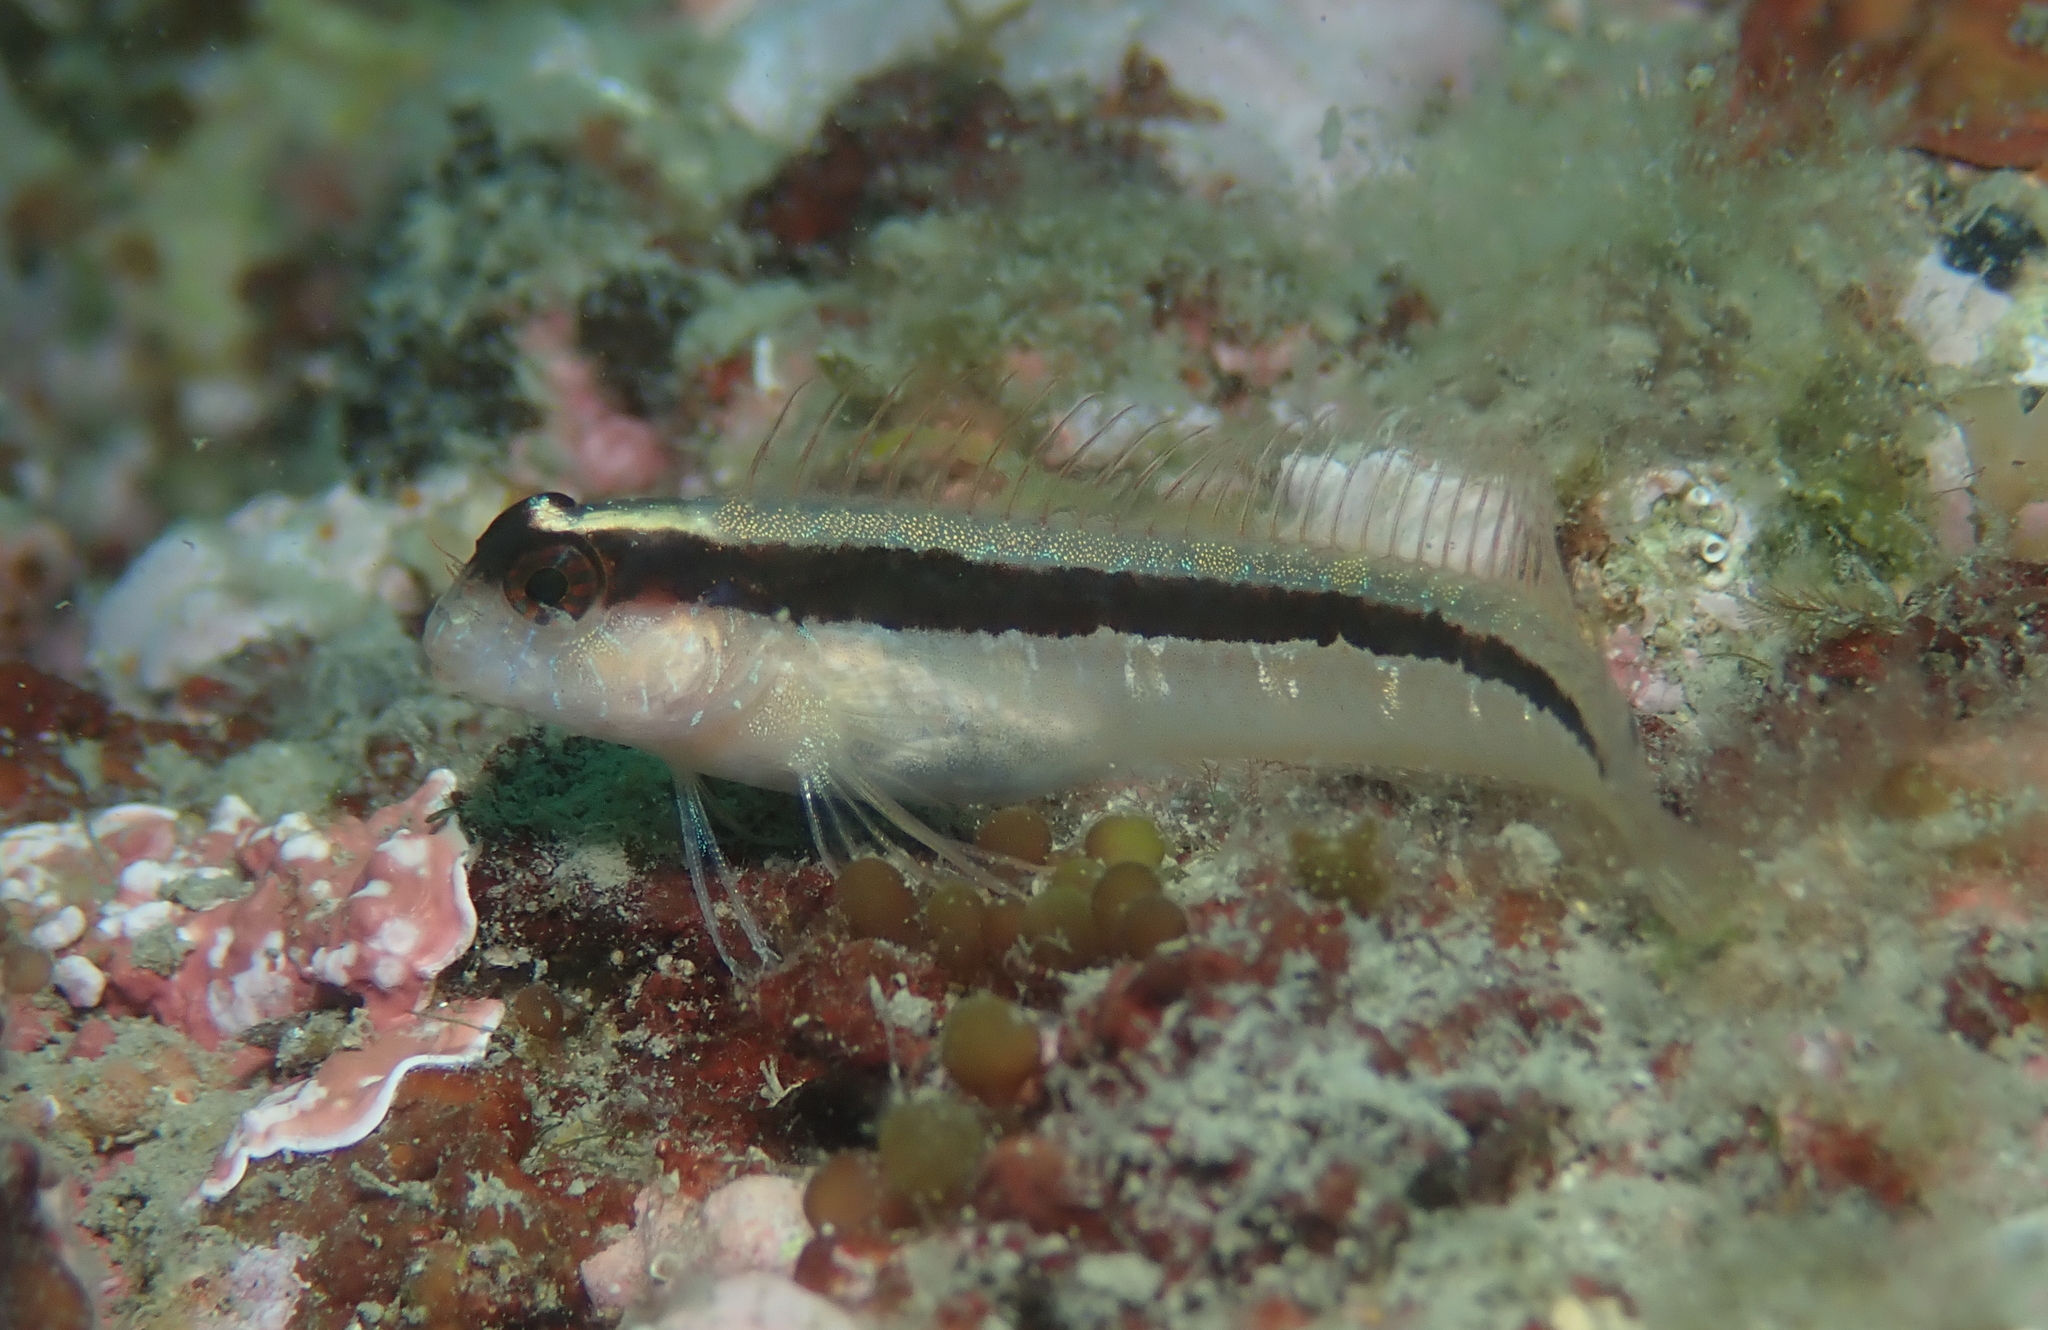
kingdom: Animalia
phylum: Chordata
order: Perciformes
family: Blenniidae
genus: Parablennius
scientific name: Parablennius rouxi
